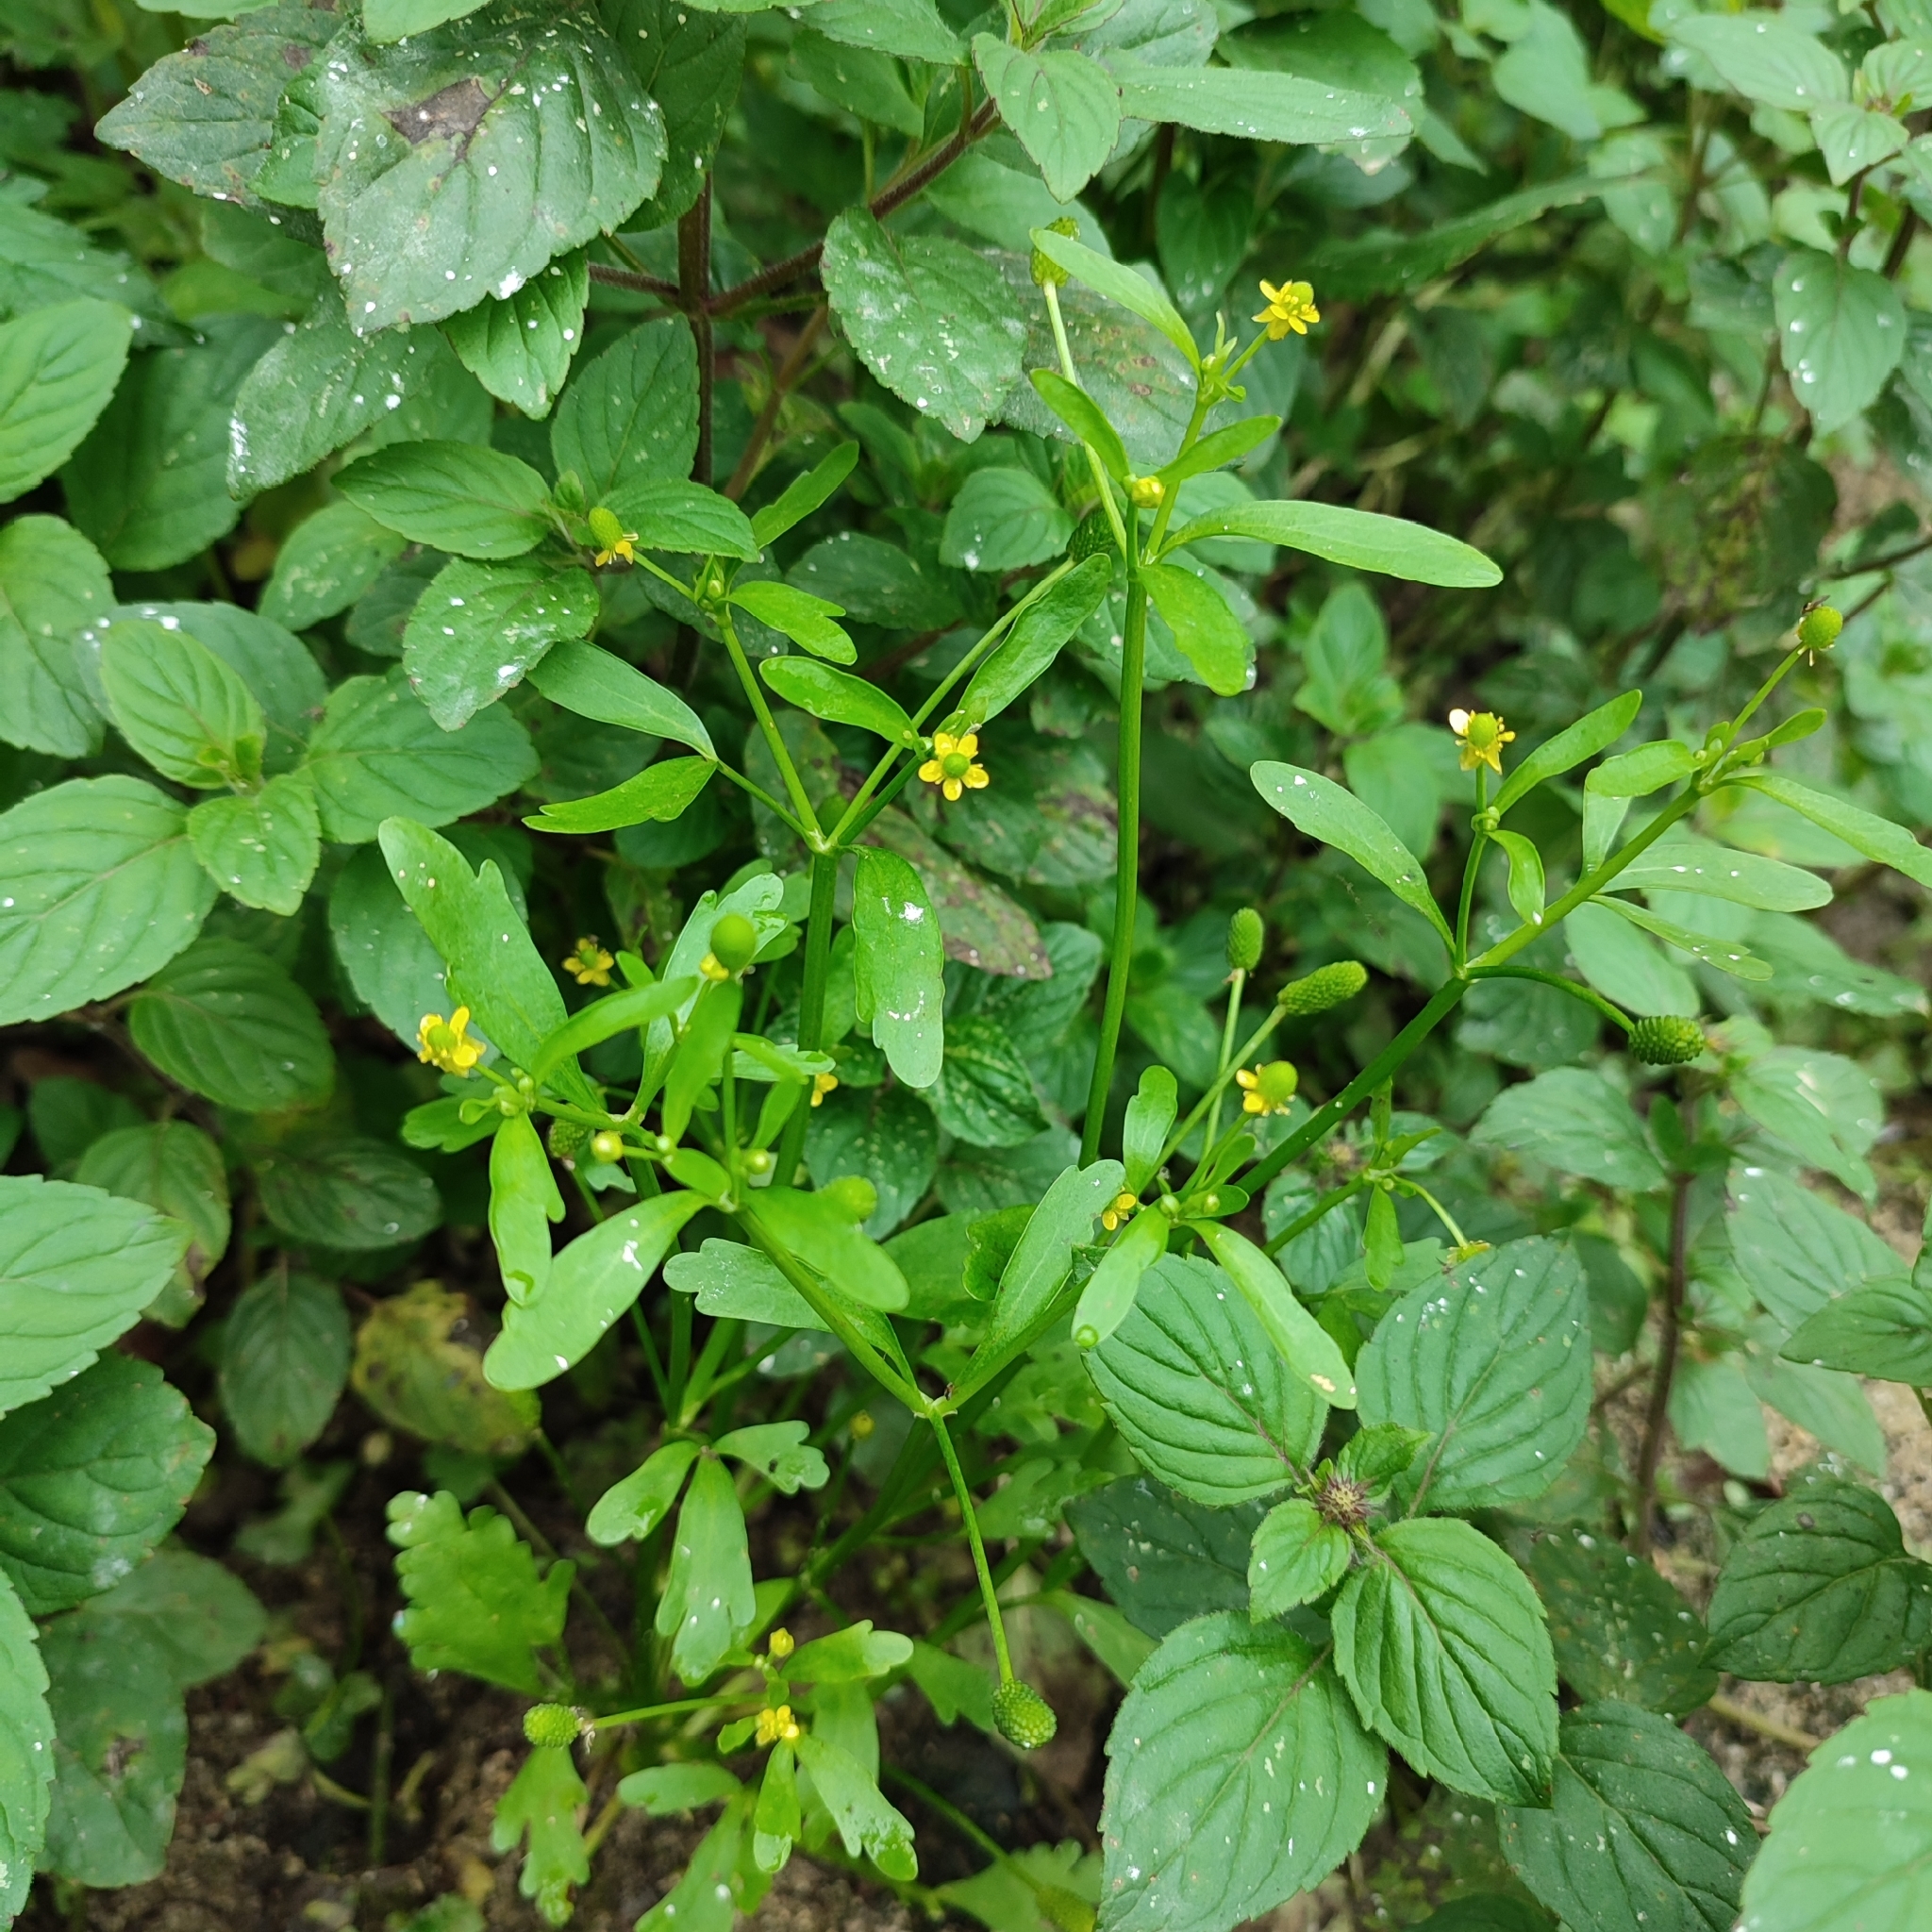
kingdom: Plantae
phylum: Tracheophyta
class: Magnoliopsida
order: Ranunculales
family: Ranunculaceae
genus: Ranunculus
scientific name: Ranunculus sceleratus
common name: Celery-leaved buttercup
